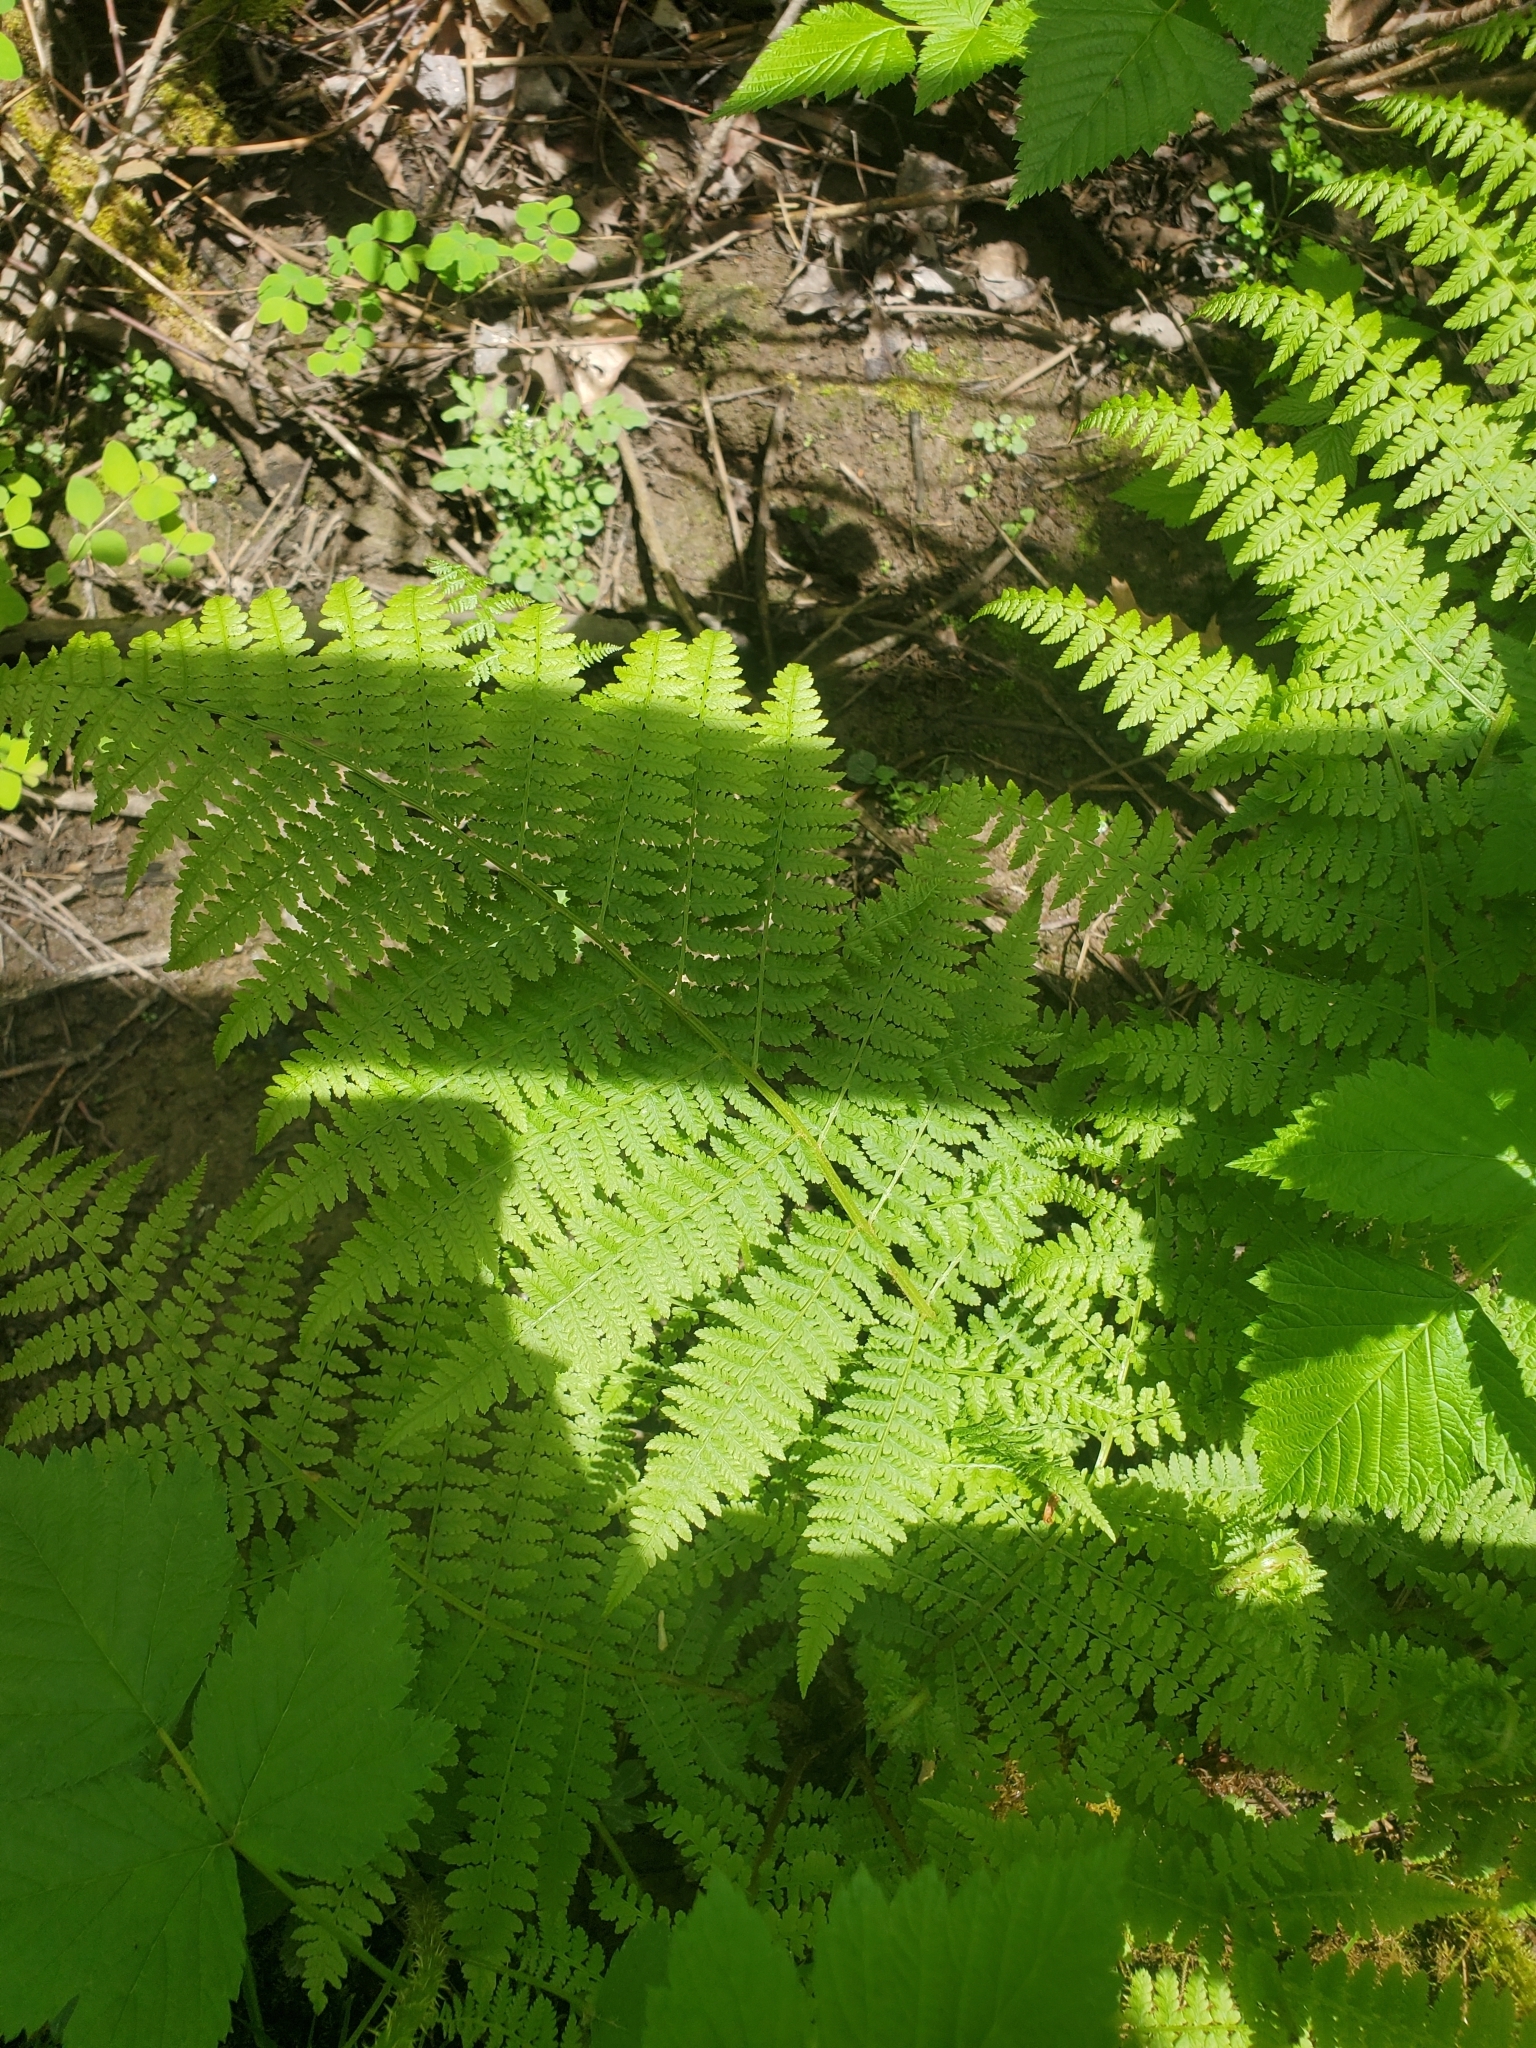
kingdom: Plantae
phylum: Tracheophyta
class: Polypodiopsida
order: Polypodiales
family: Athyriaceae
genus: Athyrium
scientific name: Athyrium filix-femina
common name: Lady fern
